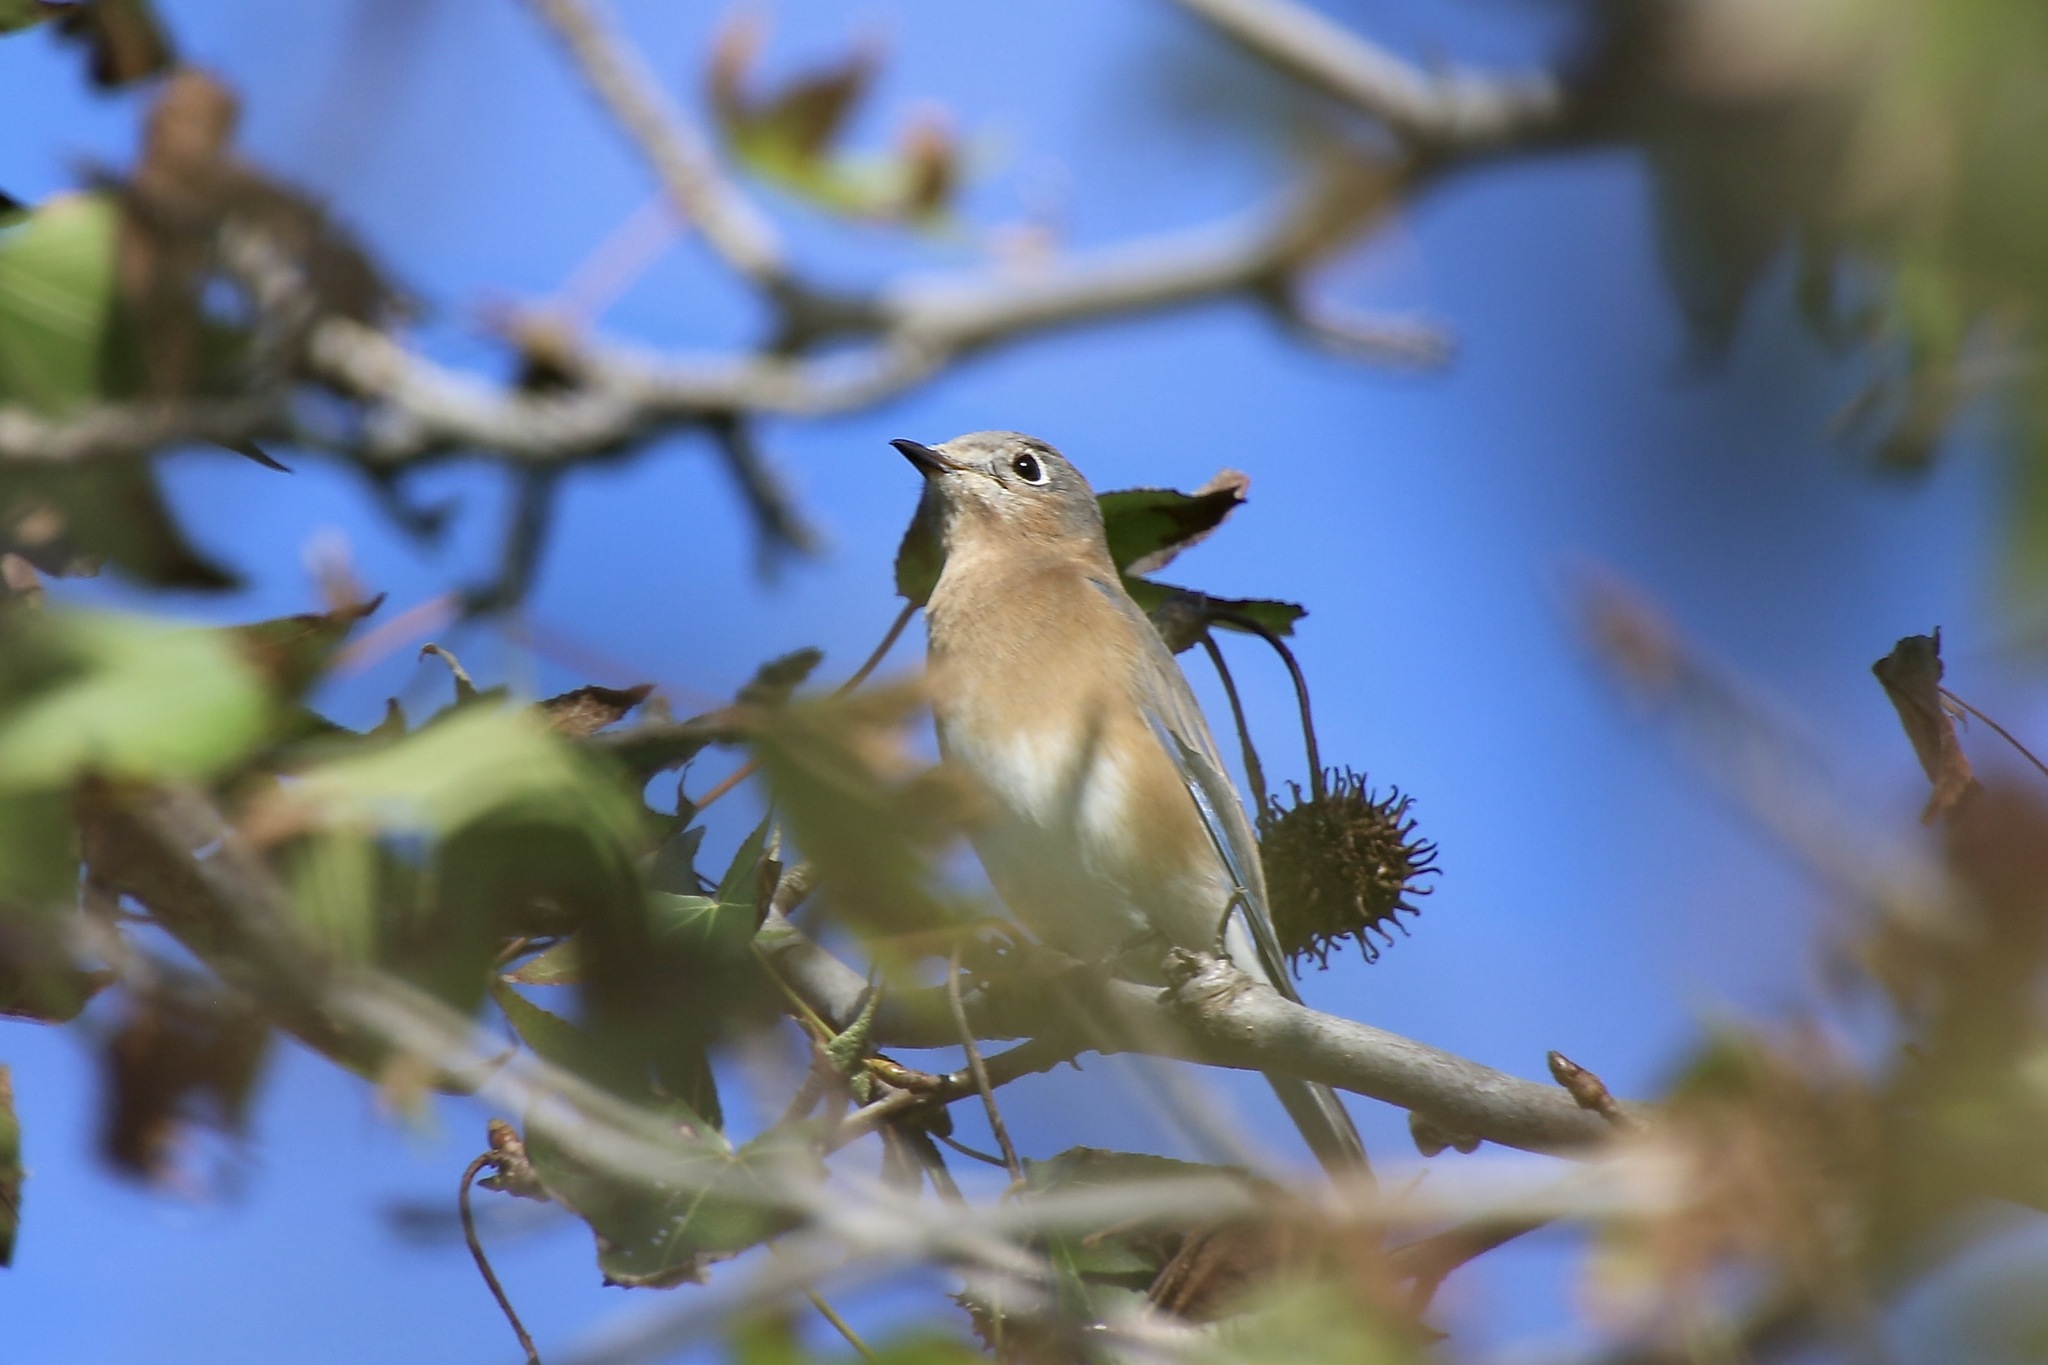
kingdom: Animalia
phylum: Chordata
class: Aves
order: Passeriformes
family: Turdidae
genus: Sialia
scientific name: Sialia sialis
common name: Eastern bluebird
